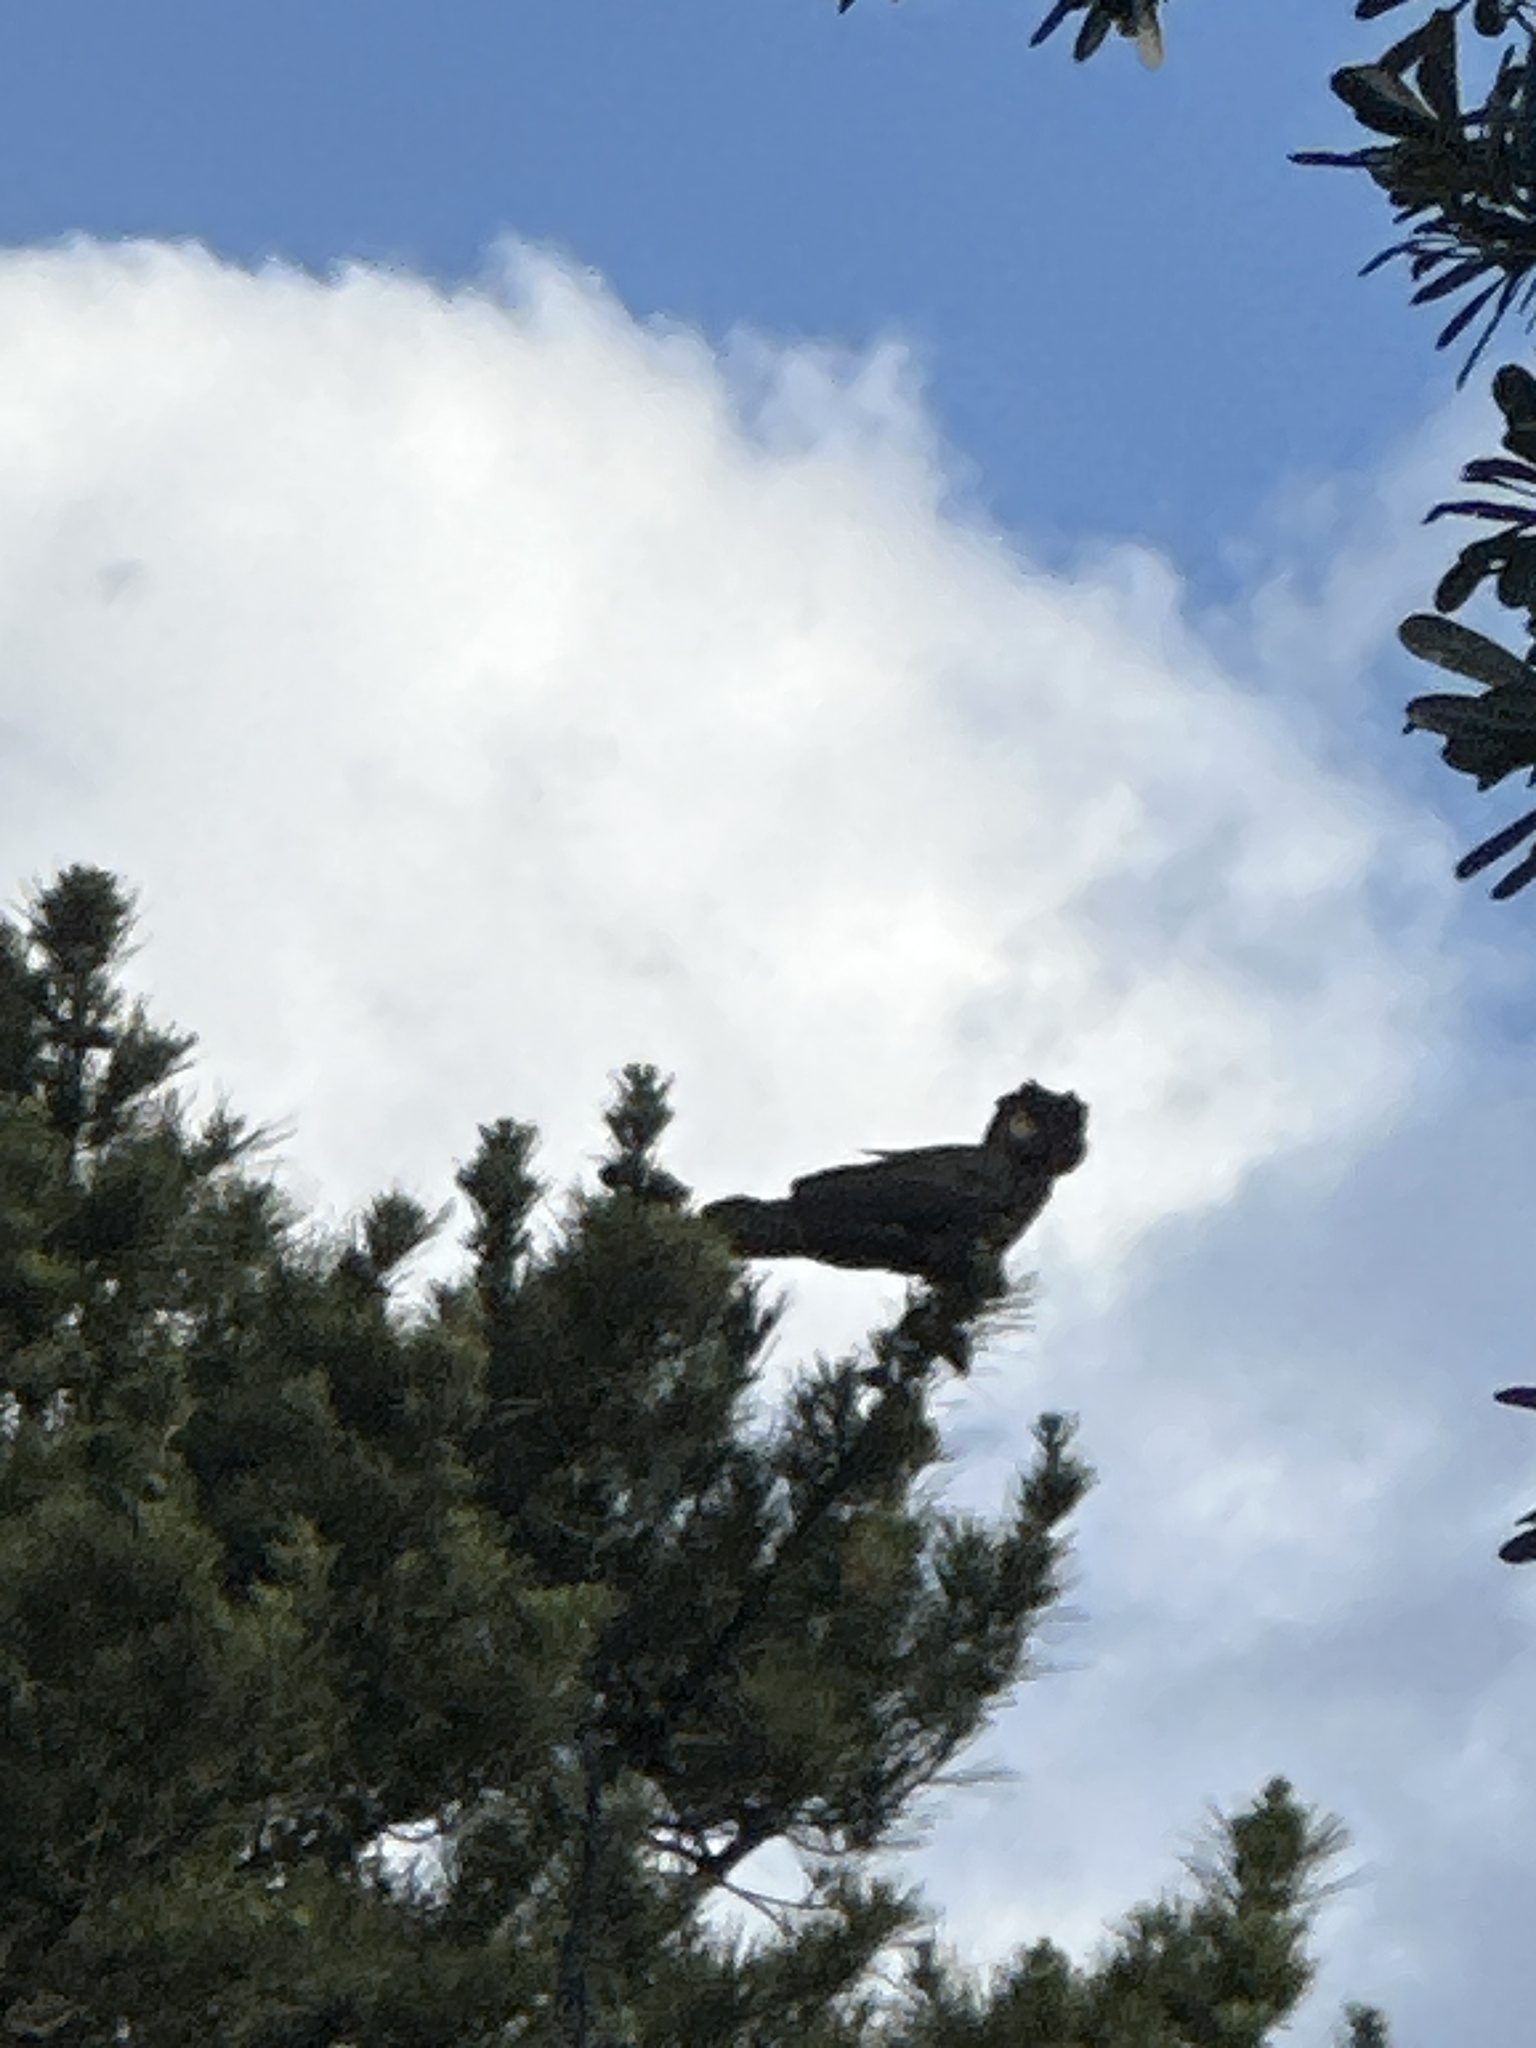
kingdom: Animalia
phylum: Chordata
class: Aves
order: Psittaciformes
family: Cacatuidae
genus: Zanda
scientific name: Zanda funerea
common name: Yellow-tailed black-cockatoo
